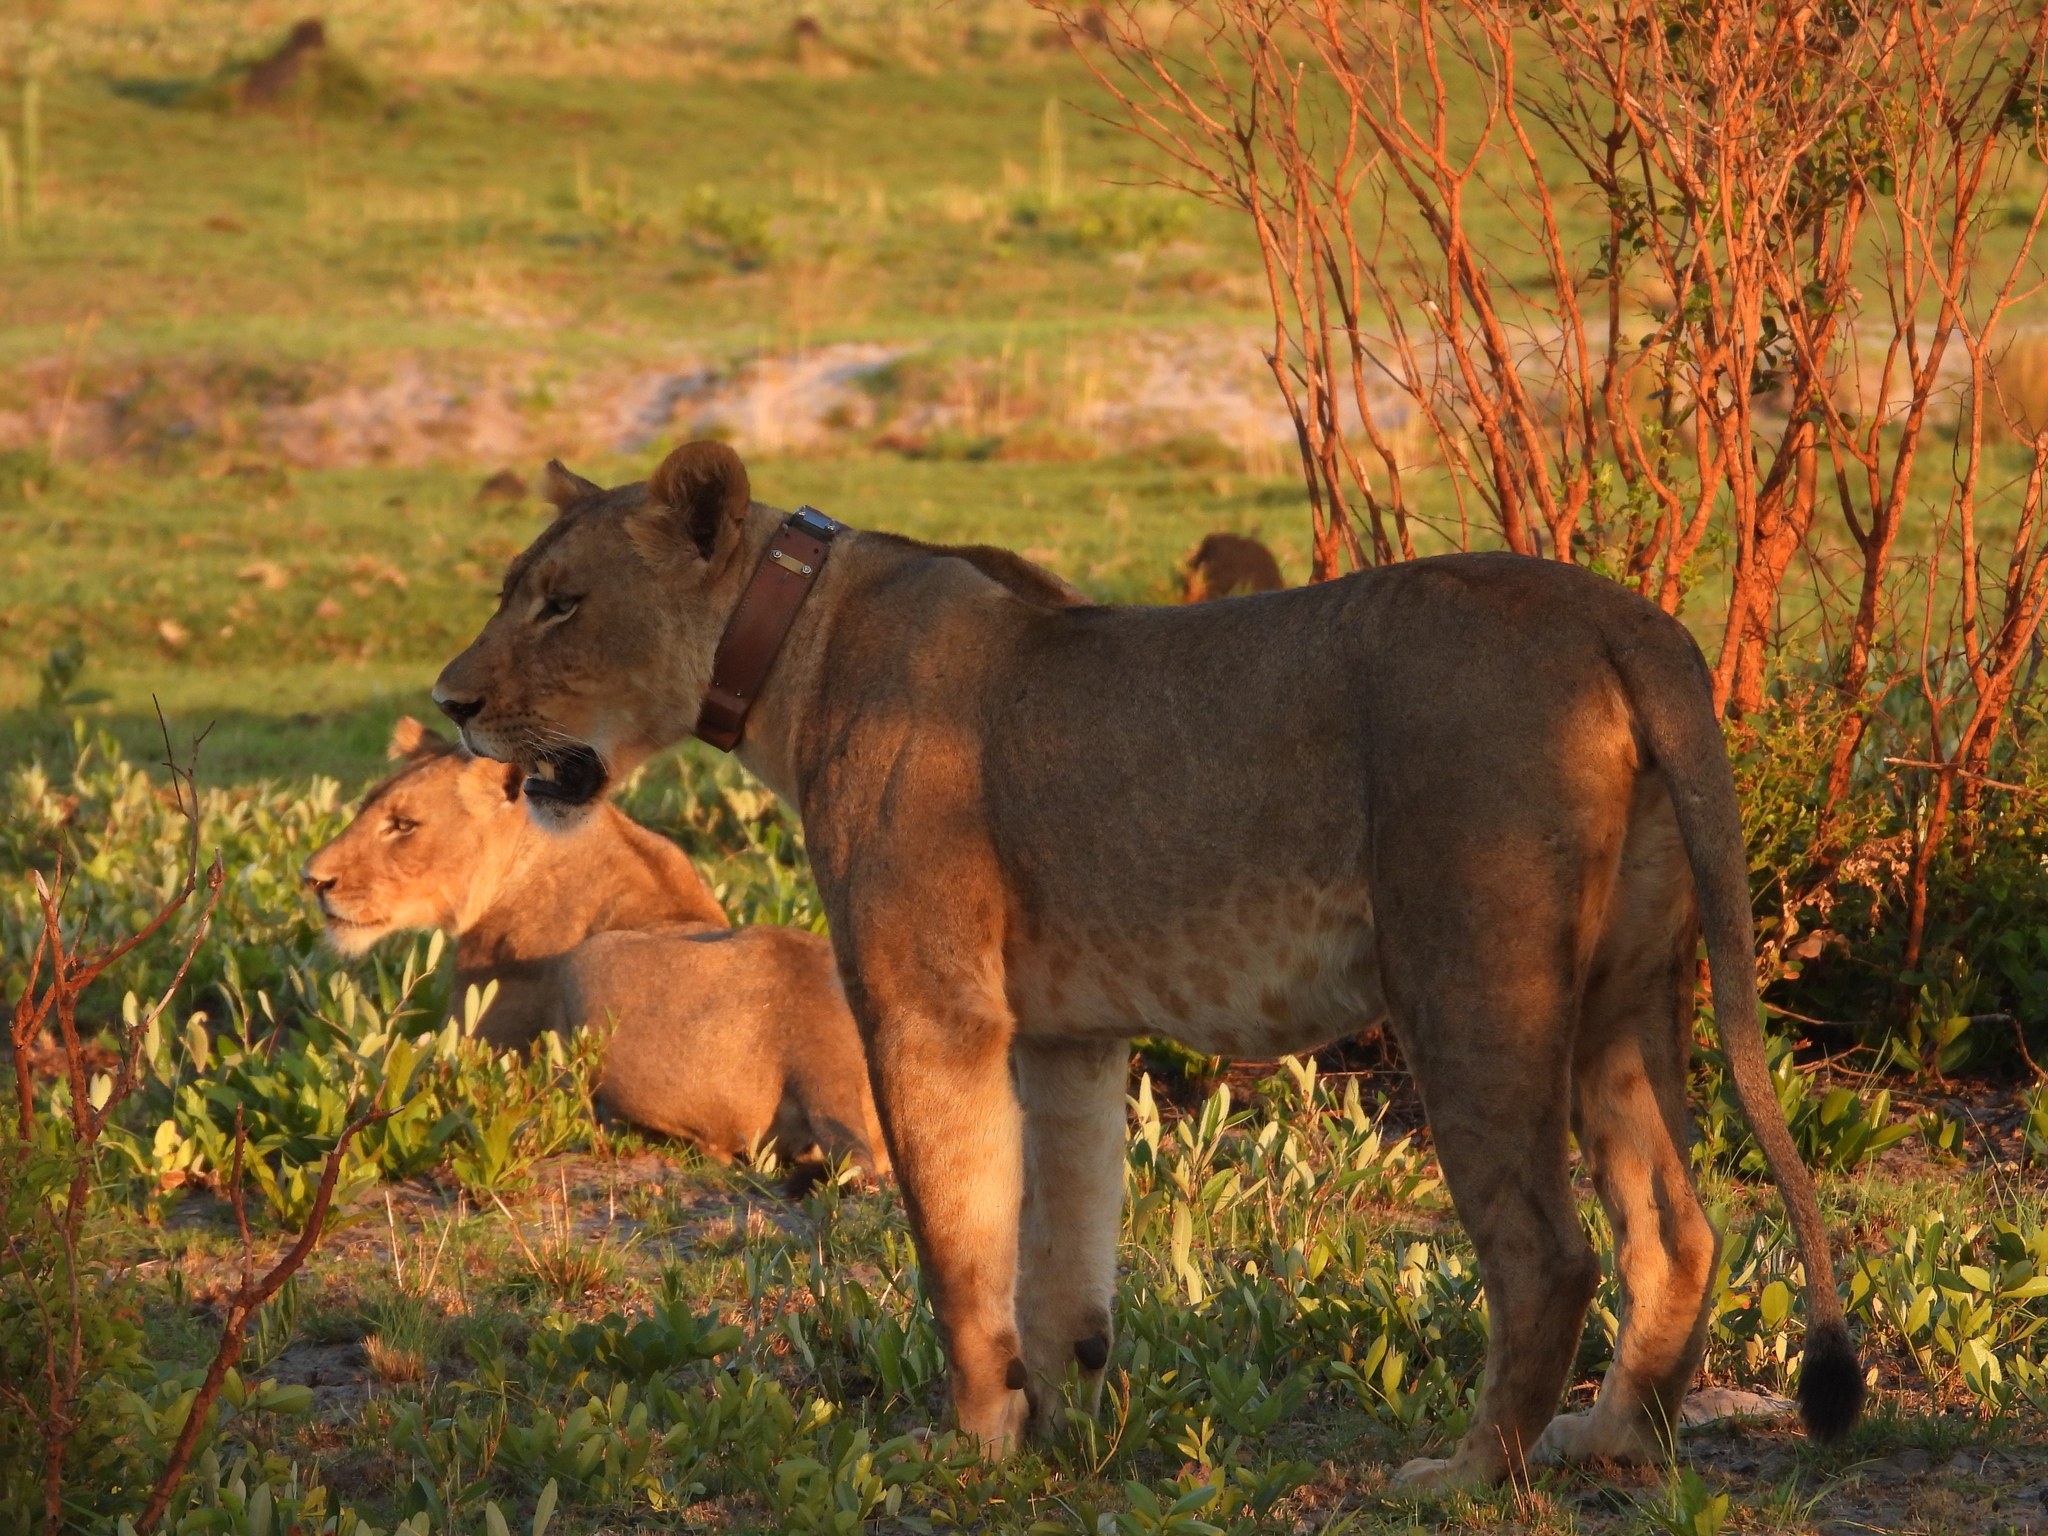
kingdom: Animalia
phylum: Chordata
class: Mammalia
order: Carnivora
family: Felidae
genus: Panthera
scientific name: Panthera leo
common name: Lion
